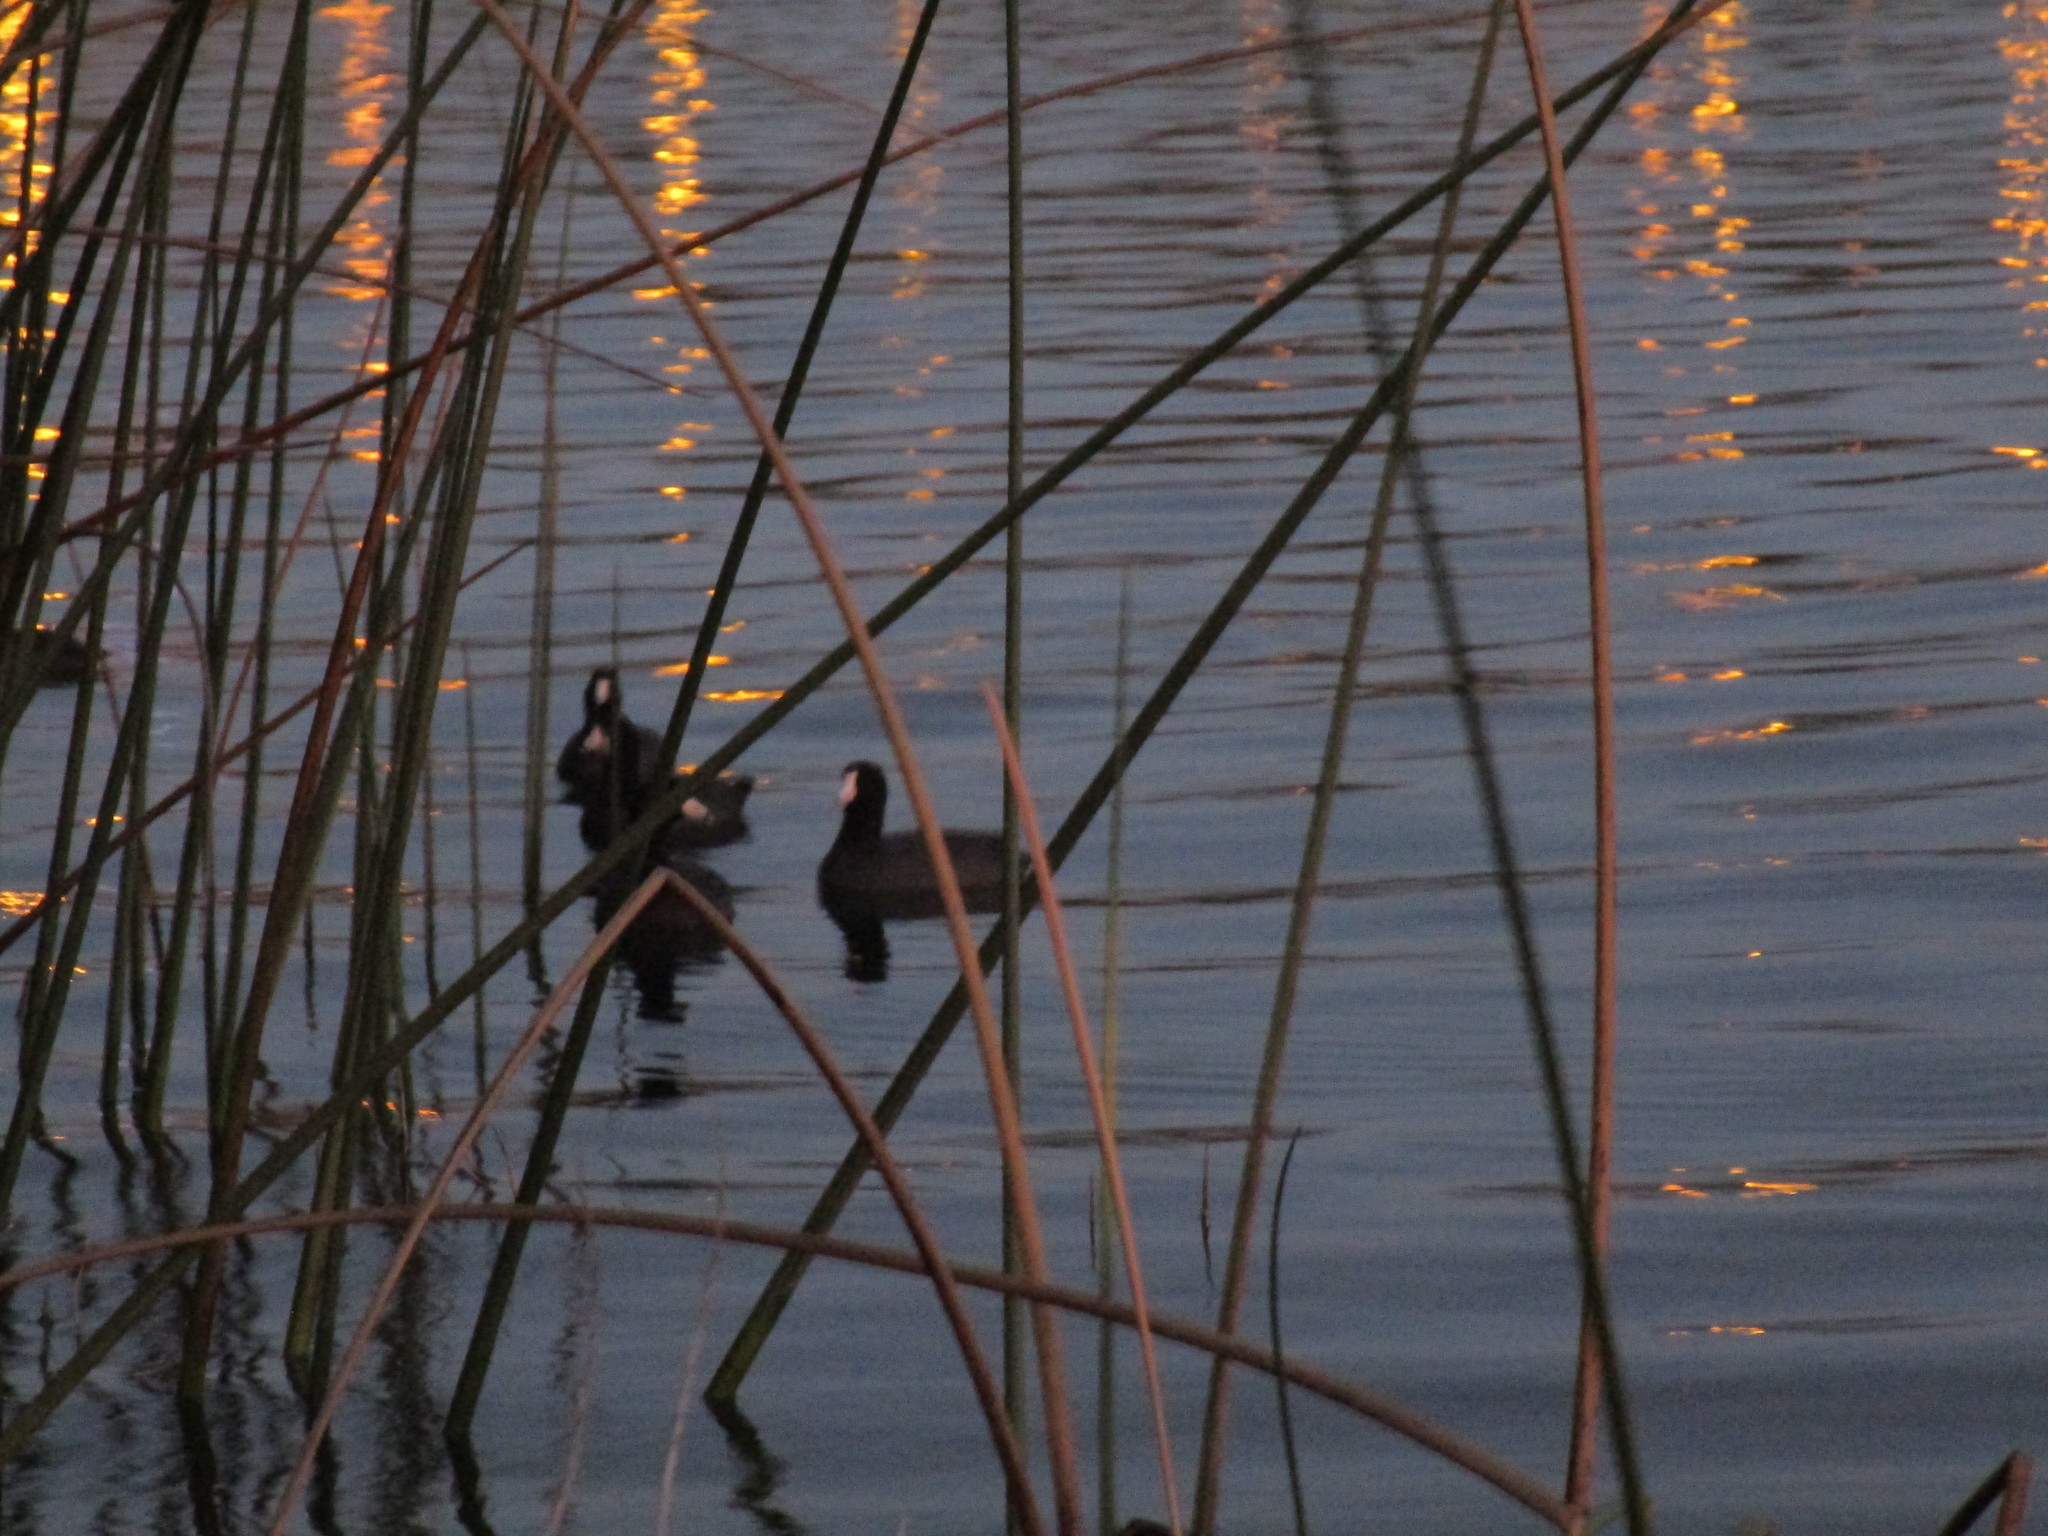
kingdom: Animalia
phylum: Chordata
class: Aves
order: Gruiformes
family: Rallidae
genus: Fulica
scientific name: Fulica americana
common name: American coot
